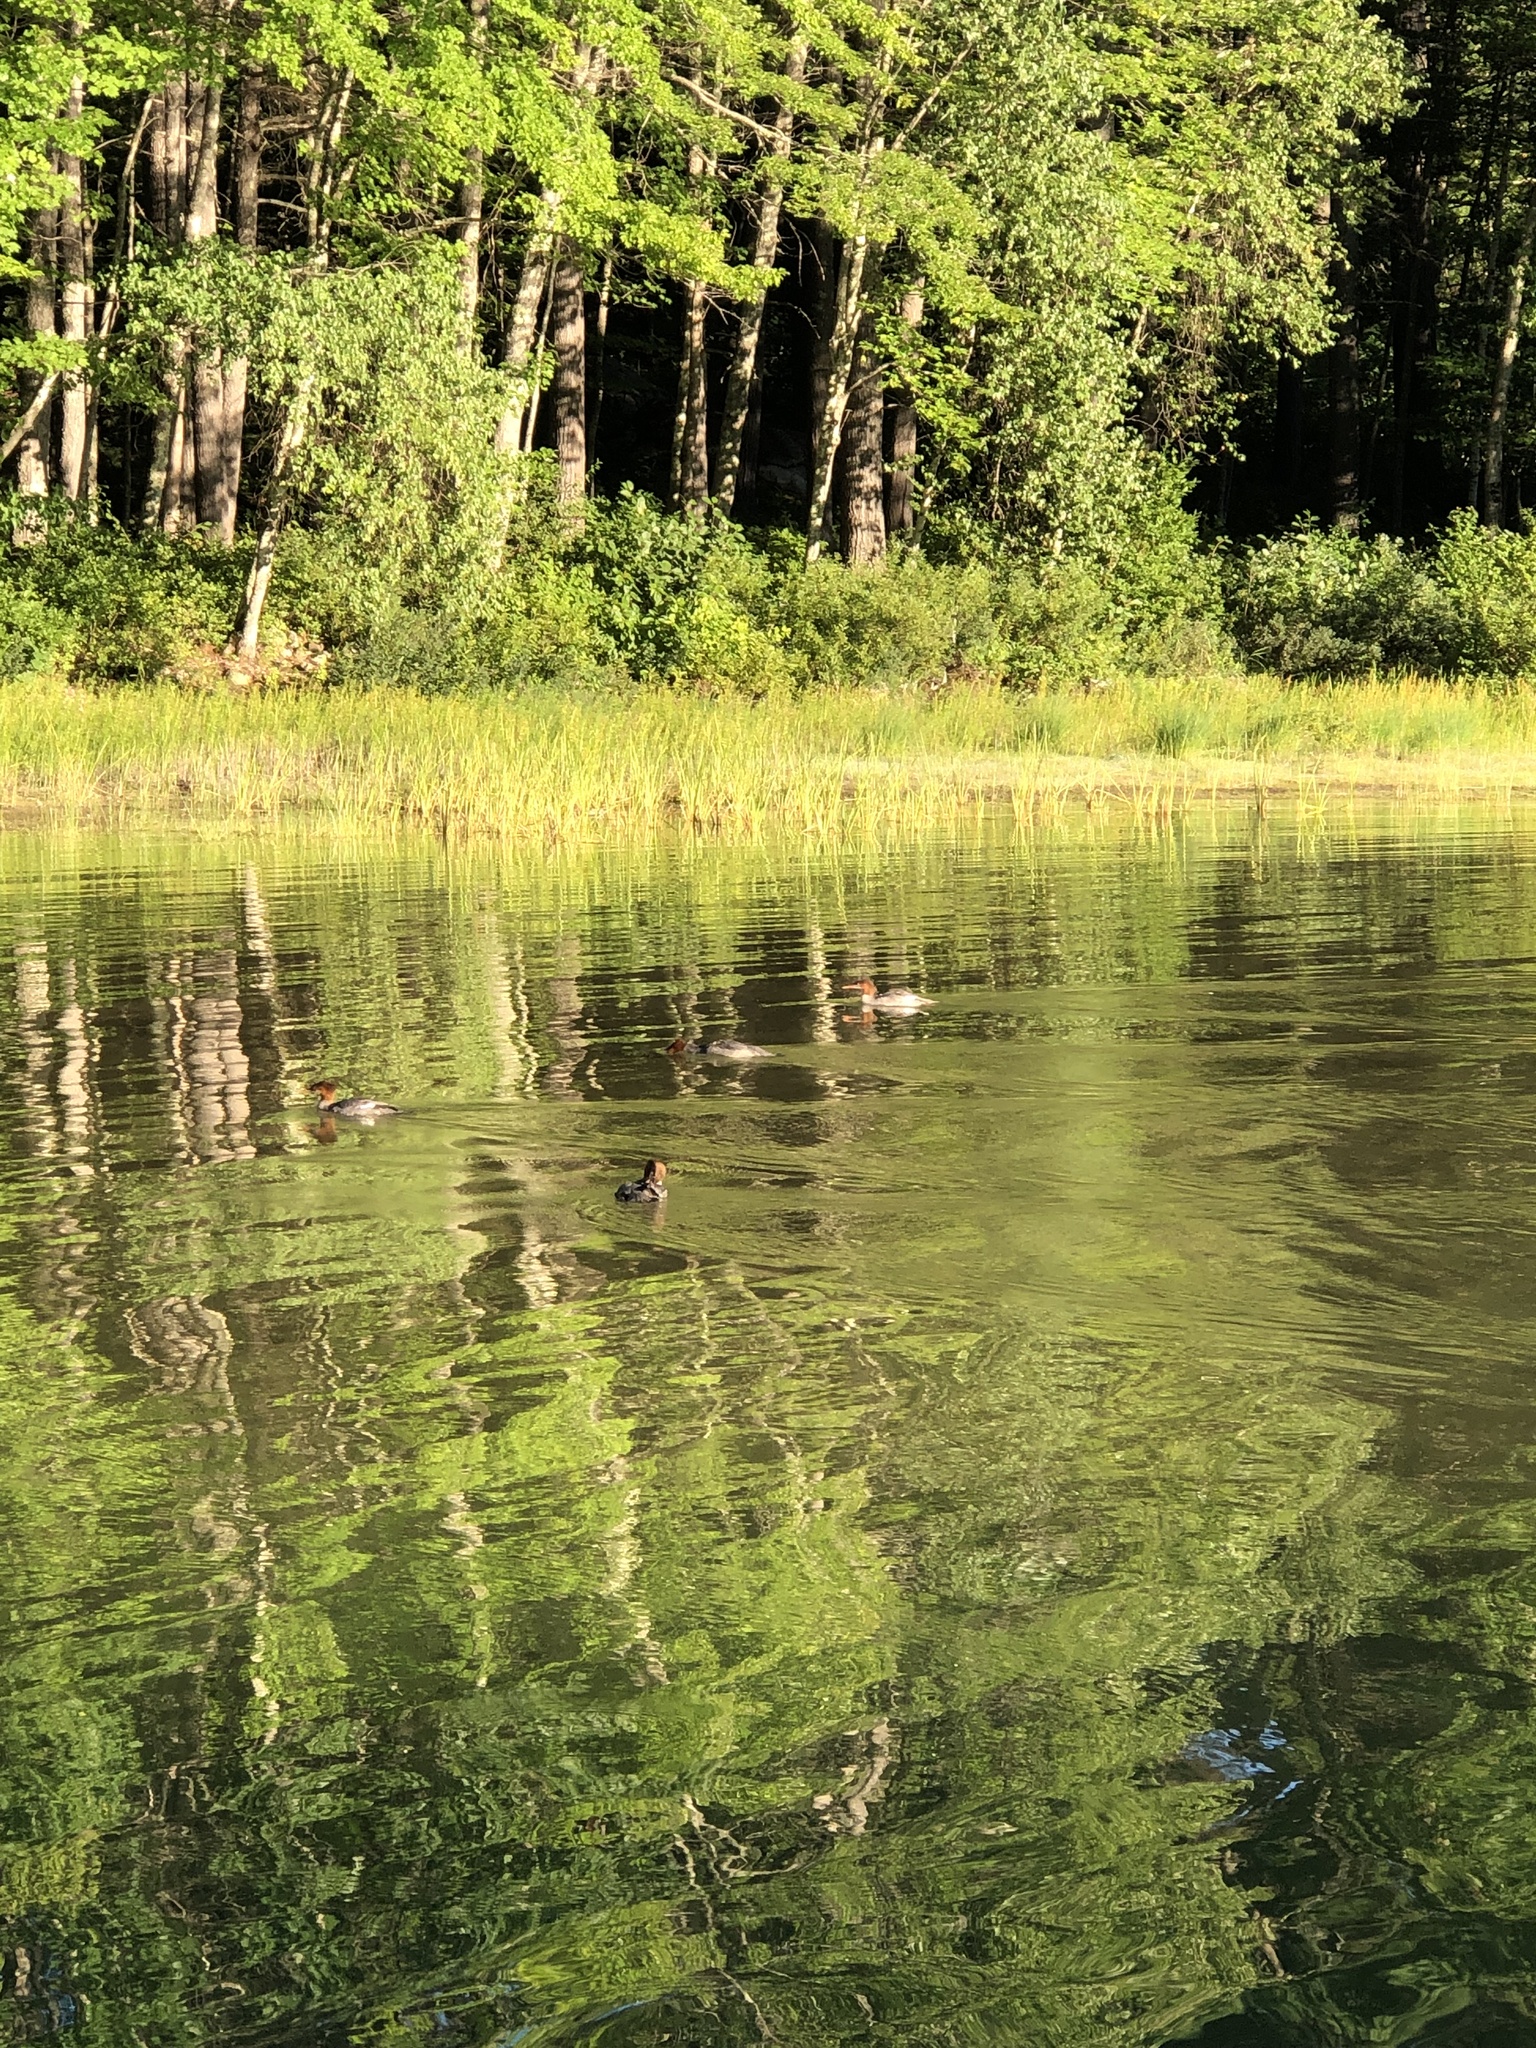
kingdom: Animalia
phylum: Chordata
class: Aves
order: Anseriformes
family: Anatidae
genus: Mergus
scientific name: Mergus merganser
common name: Common merganser
